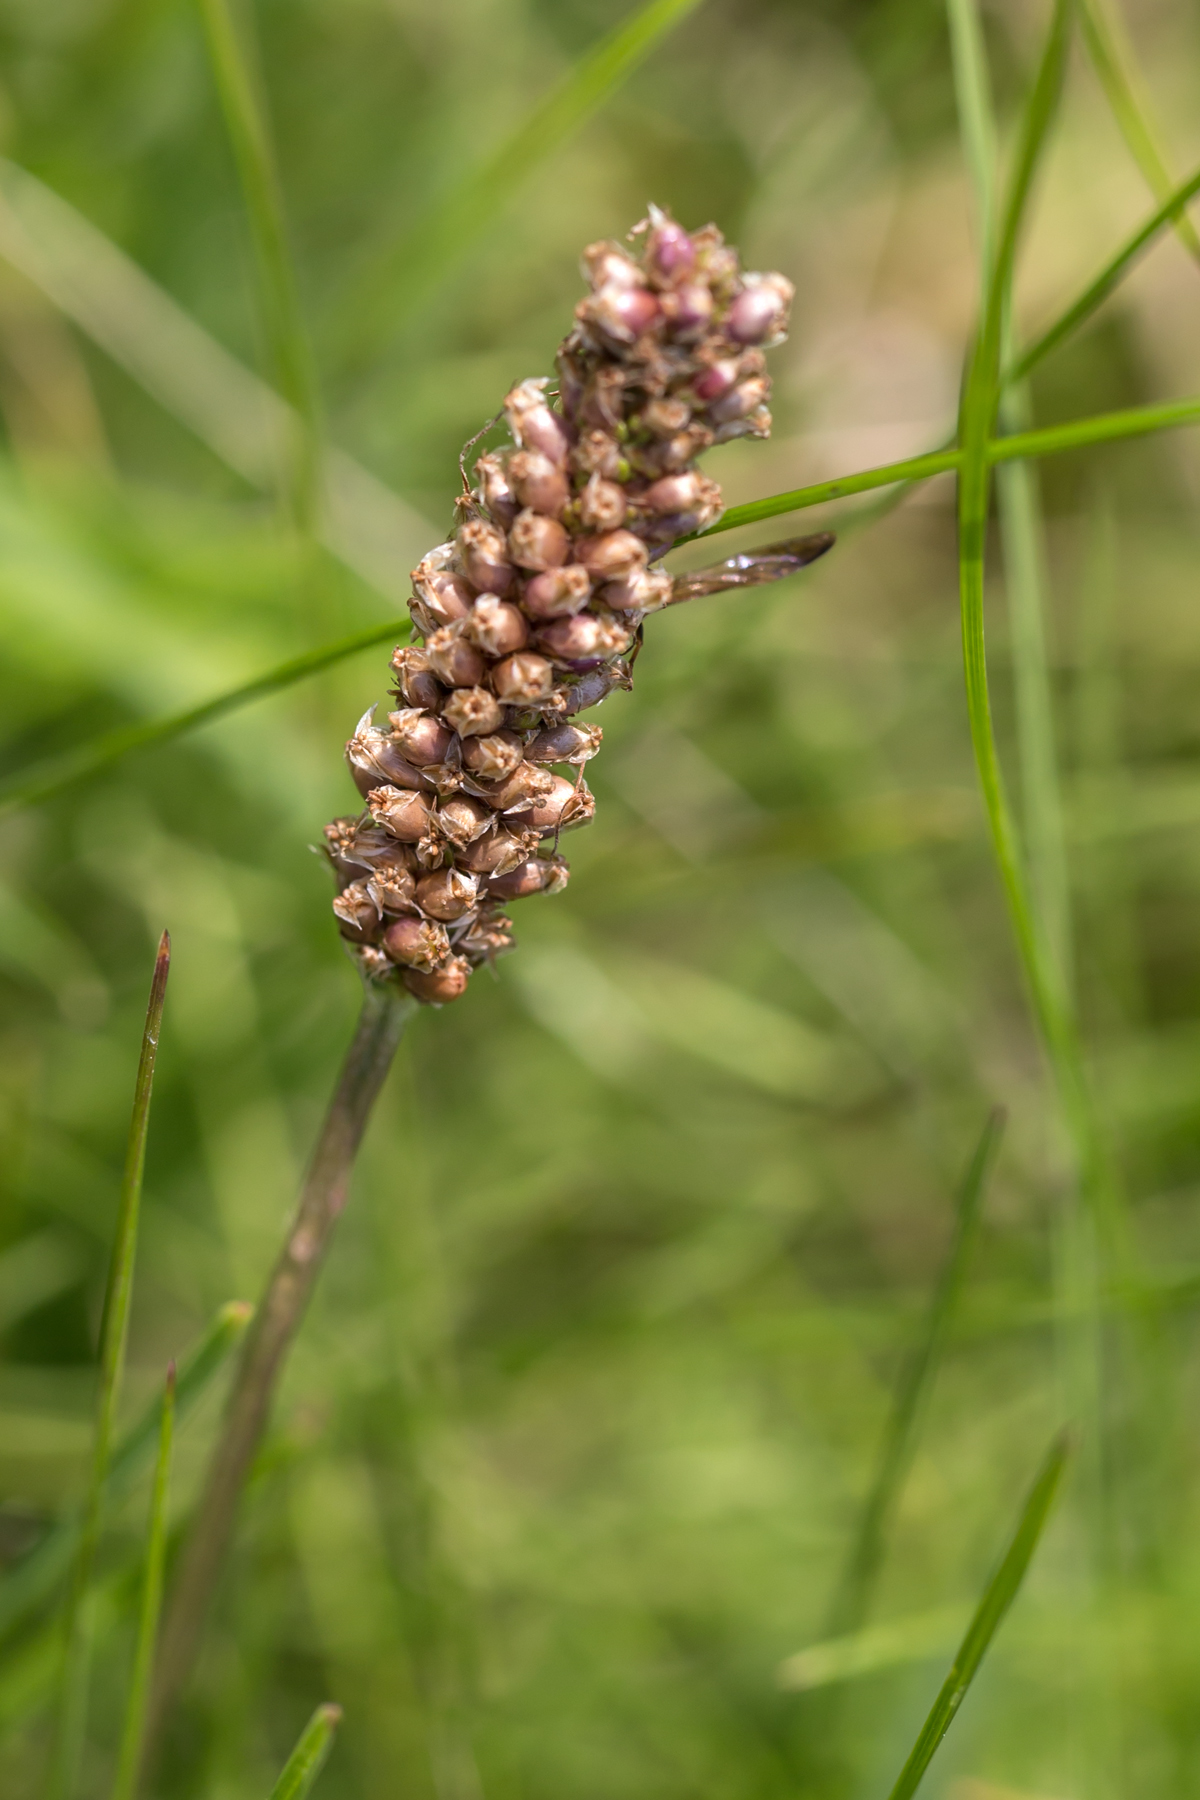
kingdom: Plantae
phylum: Tracheophyta
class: Magnoliopsida
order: Lamiales
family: Plantaginaceae
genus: Plantago
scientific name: Plantago lanceolata
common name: Ribwort plantain
